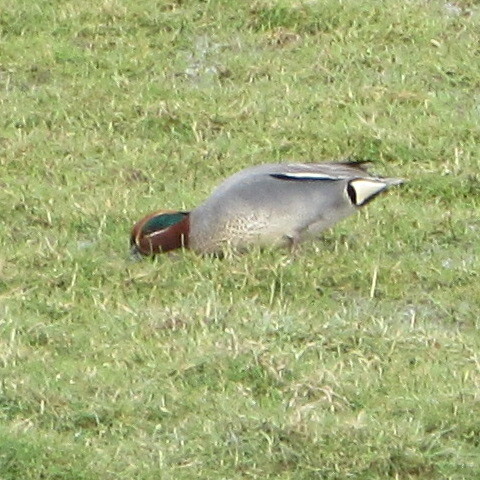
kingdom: Animalia
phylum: Chordata
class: Aves
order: Anseriformes
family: Anatidae
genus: Anas
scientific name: Anas crecca
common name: Eurasian teal
